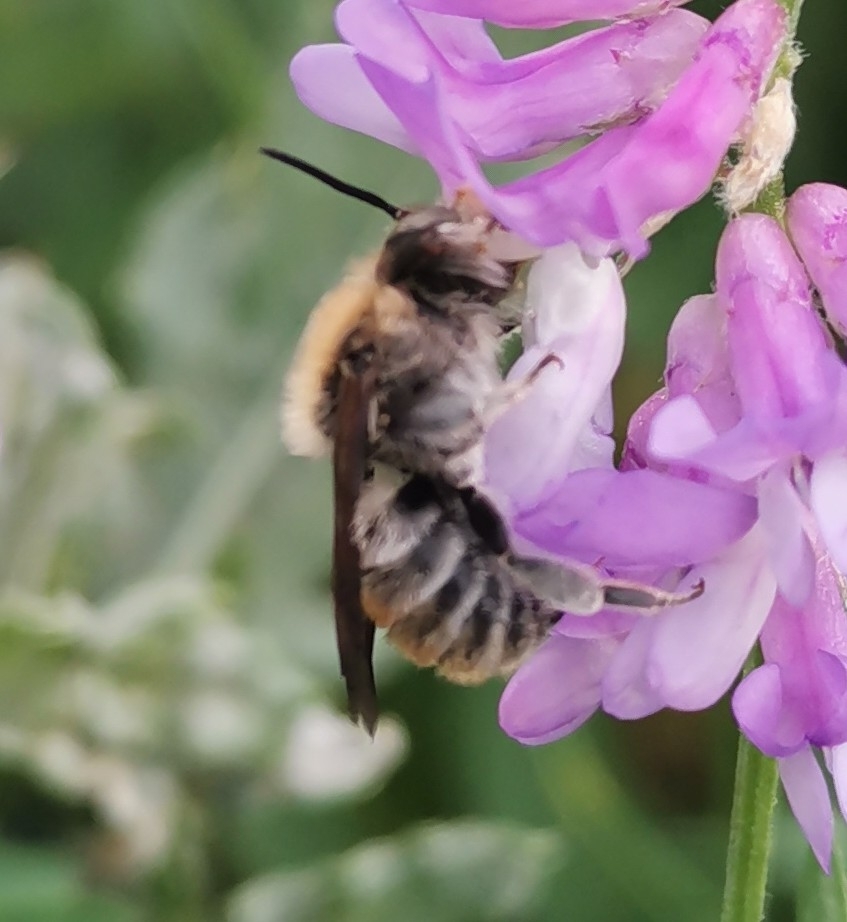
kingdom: Animalia
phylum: Arthropoda
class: Insecta
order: Hymenoptera
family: Megachilidae
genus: Trachusa
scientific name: Trachusa byssina
